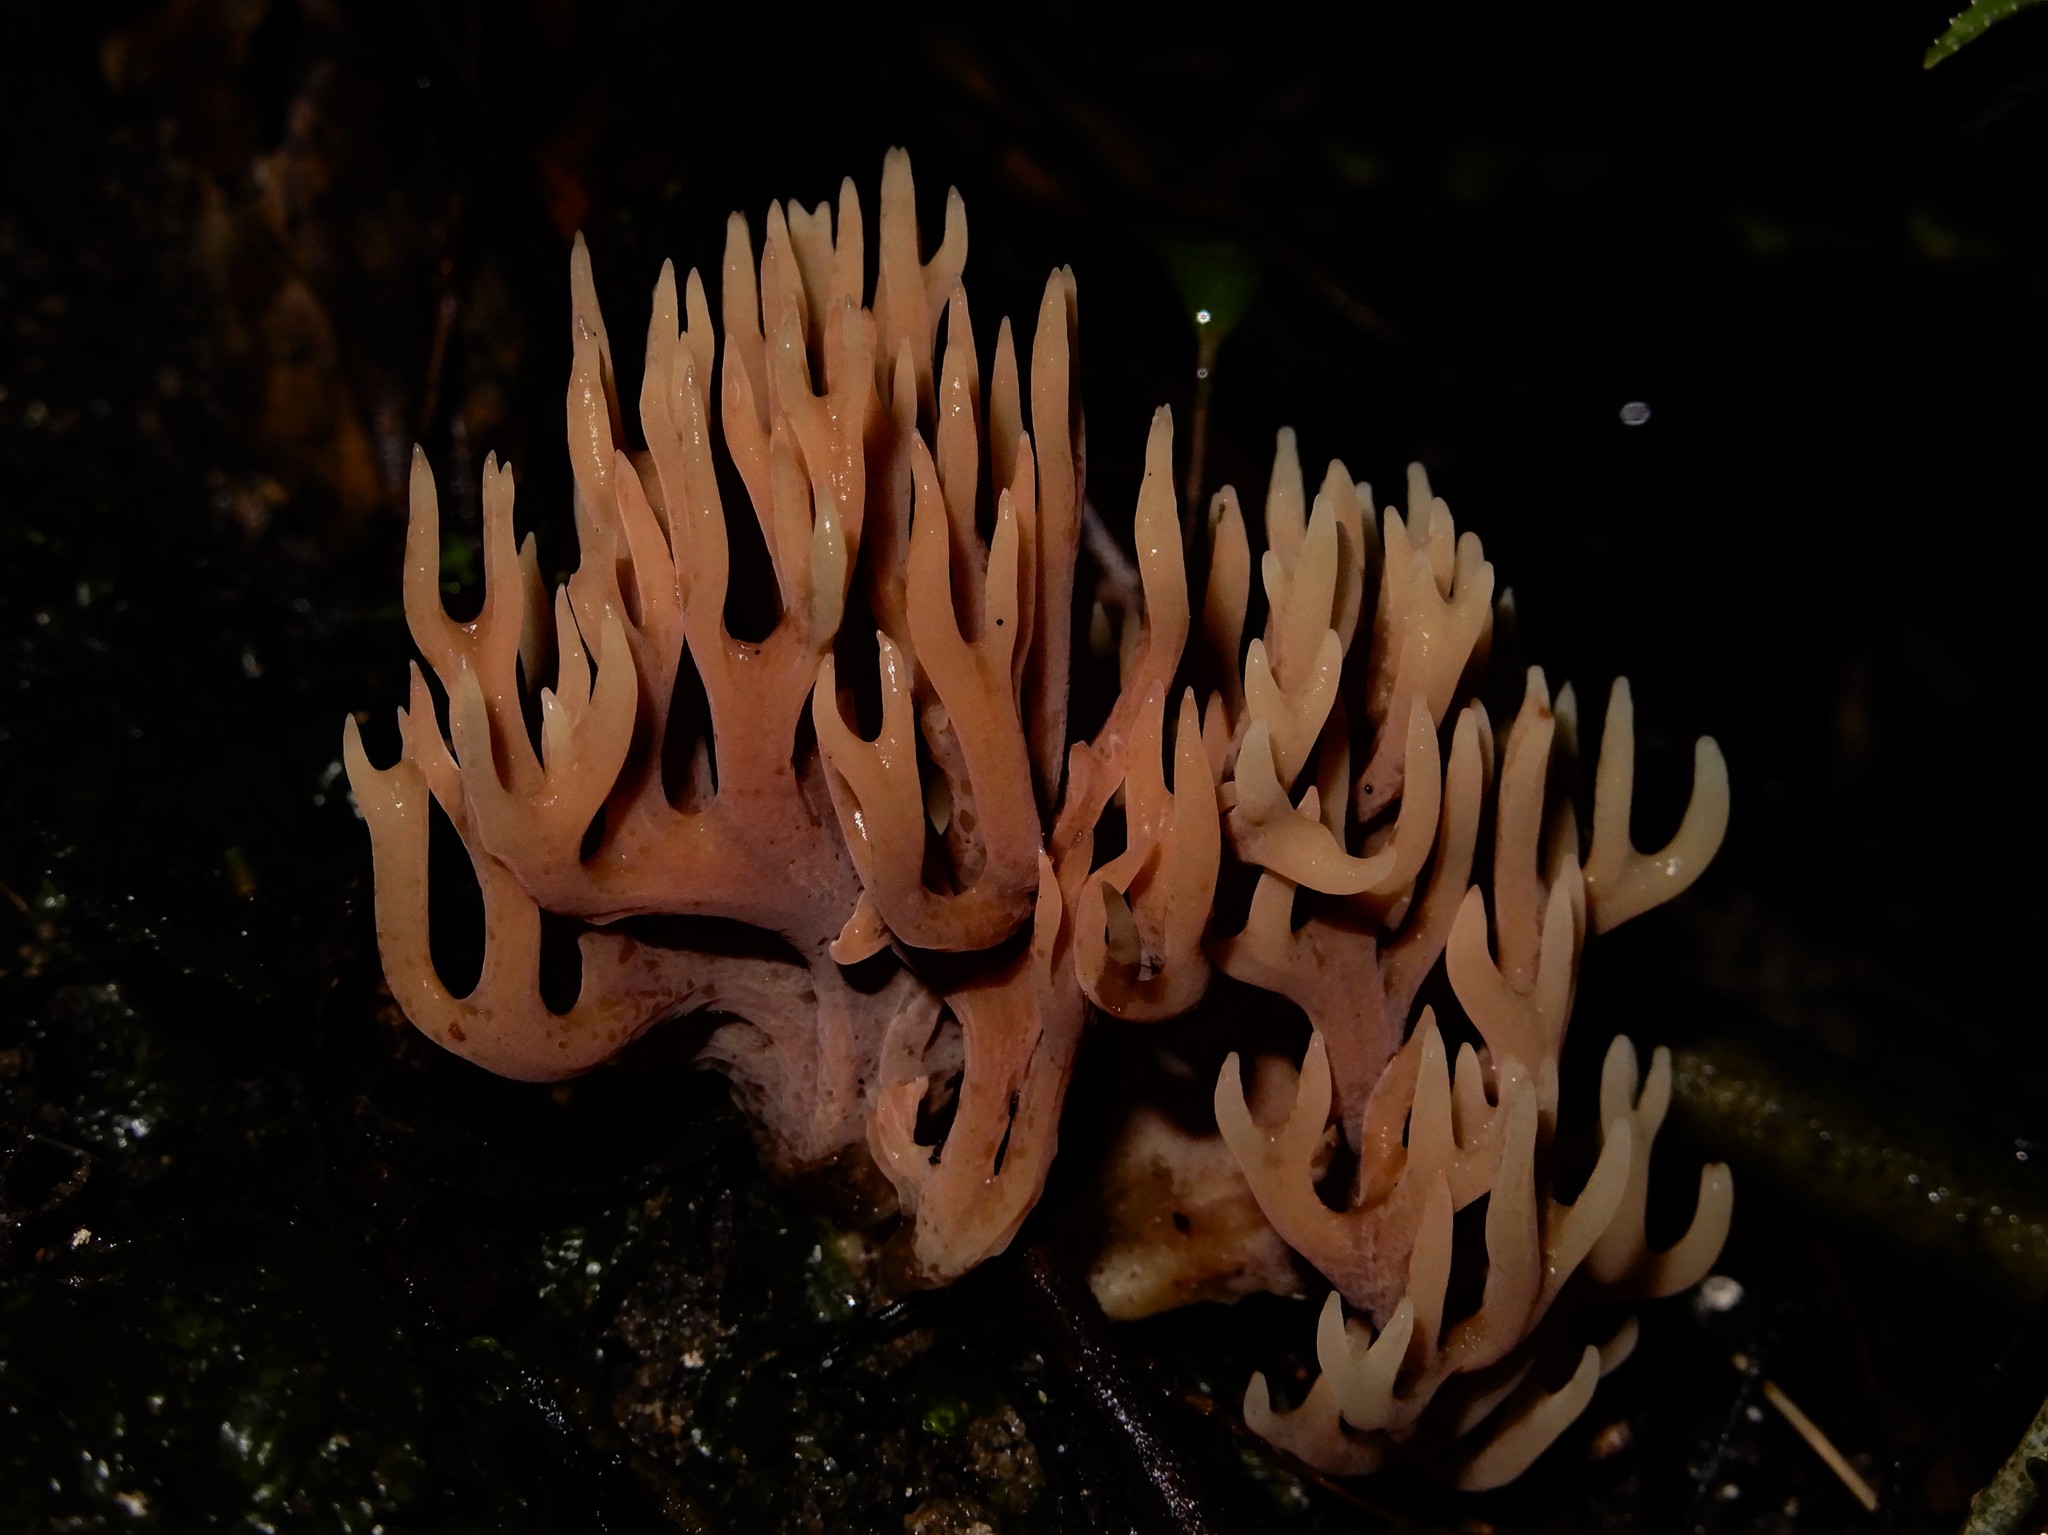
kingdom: Fungi
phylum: Basidiomycota
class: Agaricomycetes
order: Agaricales
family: Clavariaceae
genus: Ramariopsis
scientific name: Ramariopsis
